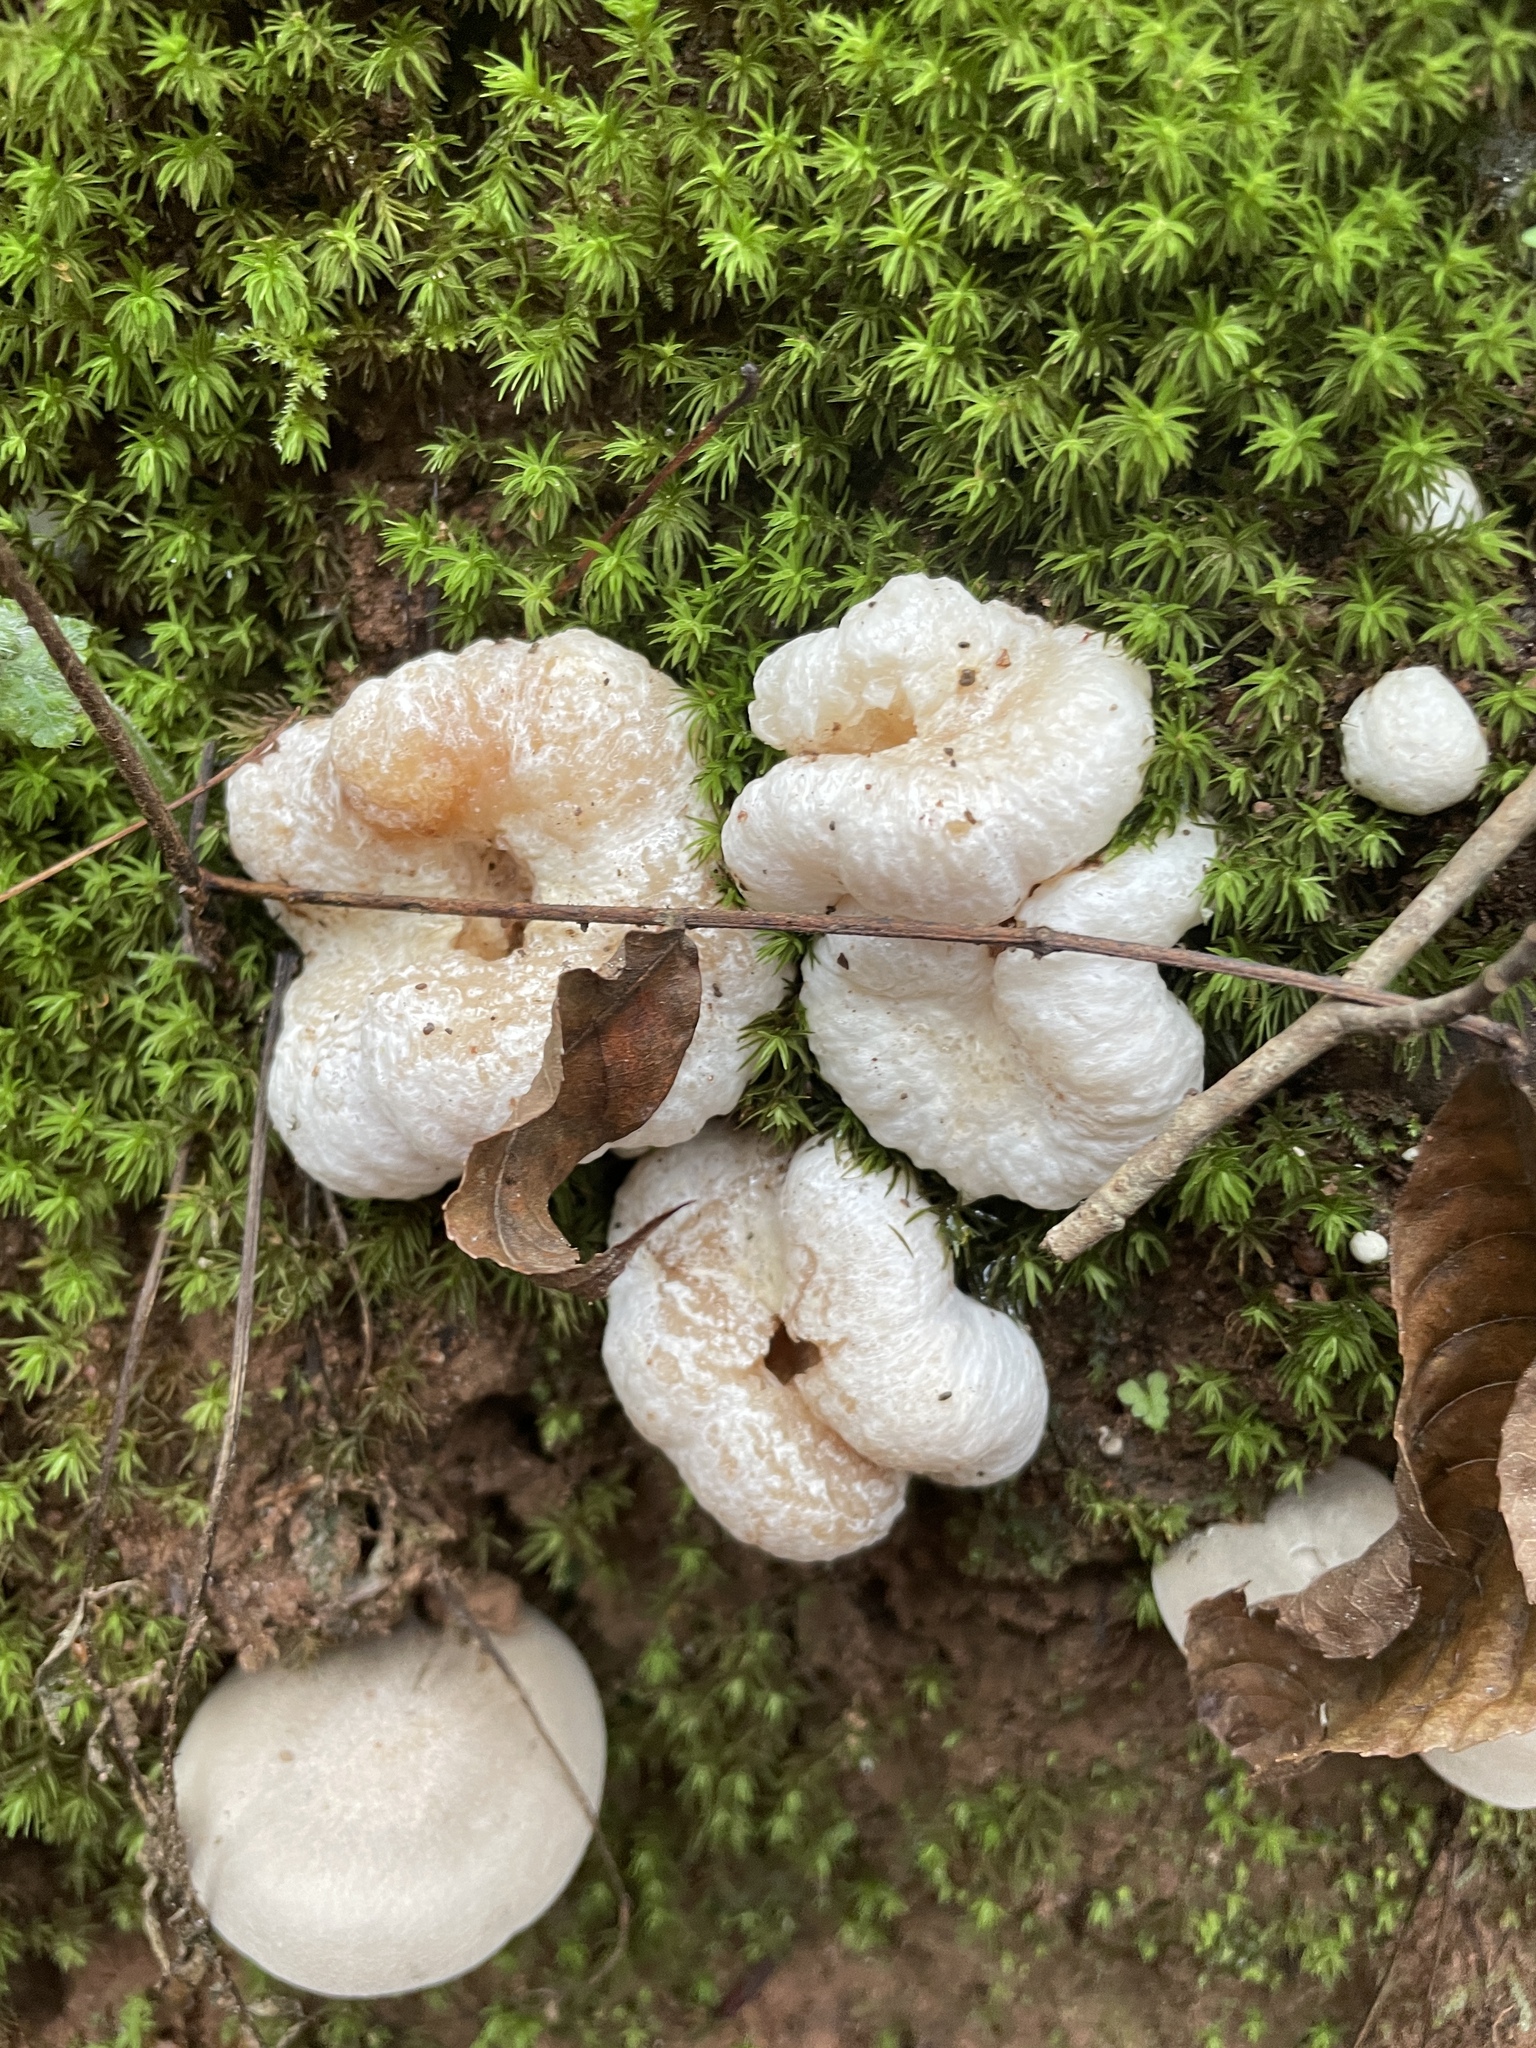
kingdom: Fungi
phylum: Basidiomycota
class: Agaricomycetes
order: Agaricales
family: Entolomataceae
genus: Entoloma
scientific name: Entoloma abortivum
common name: Aborted entoloma
